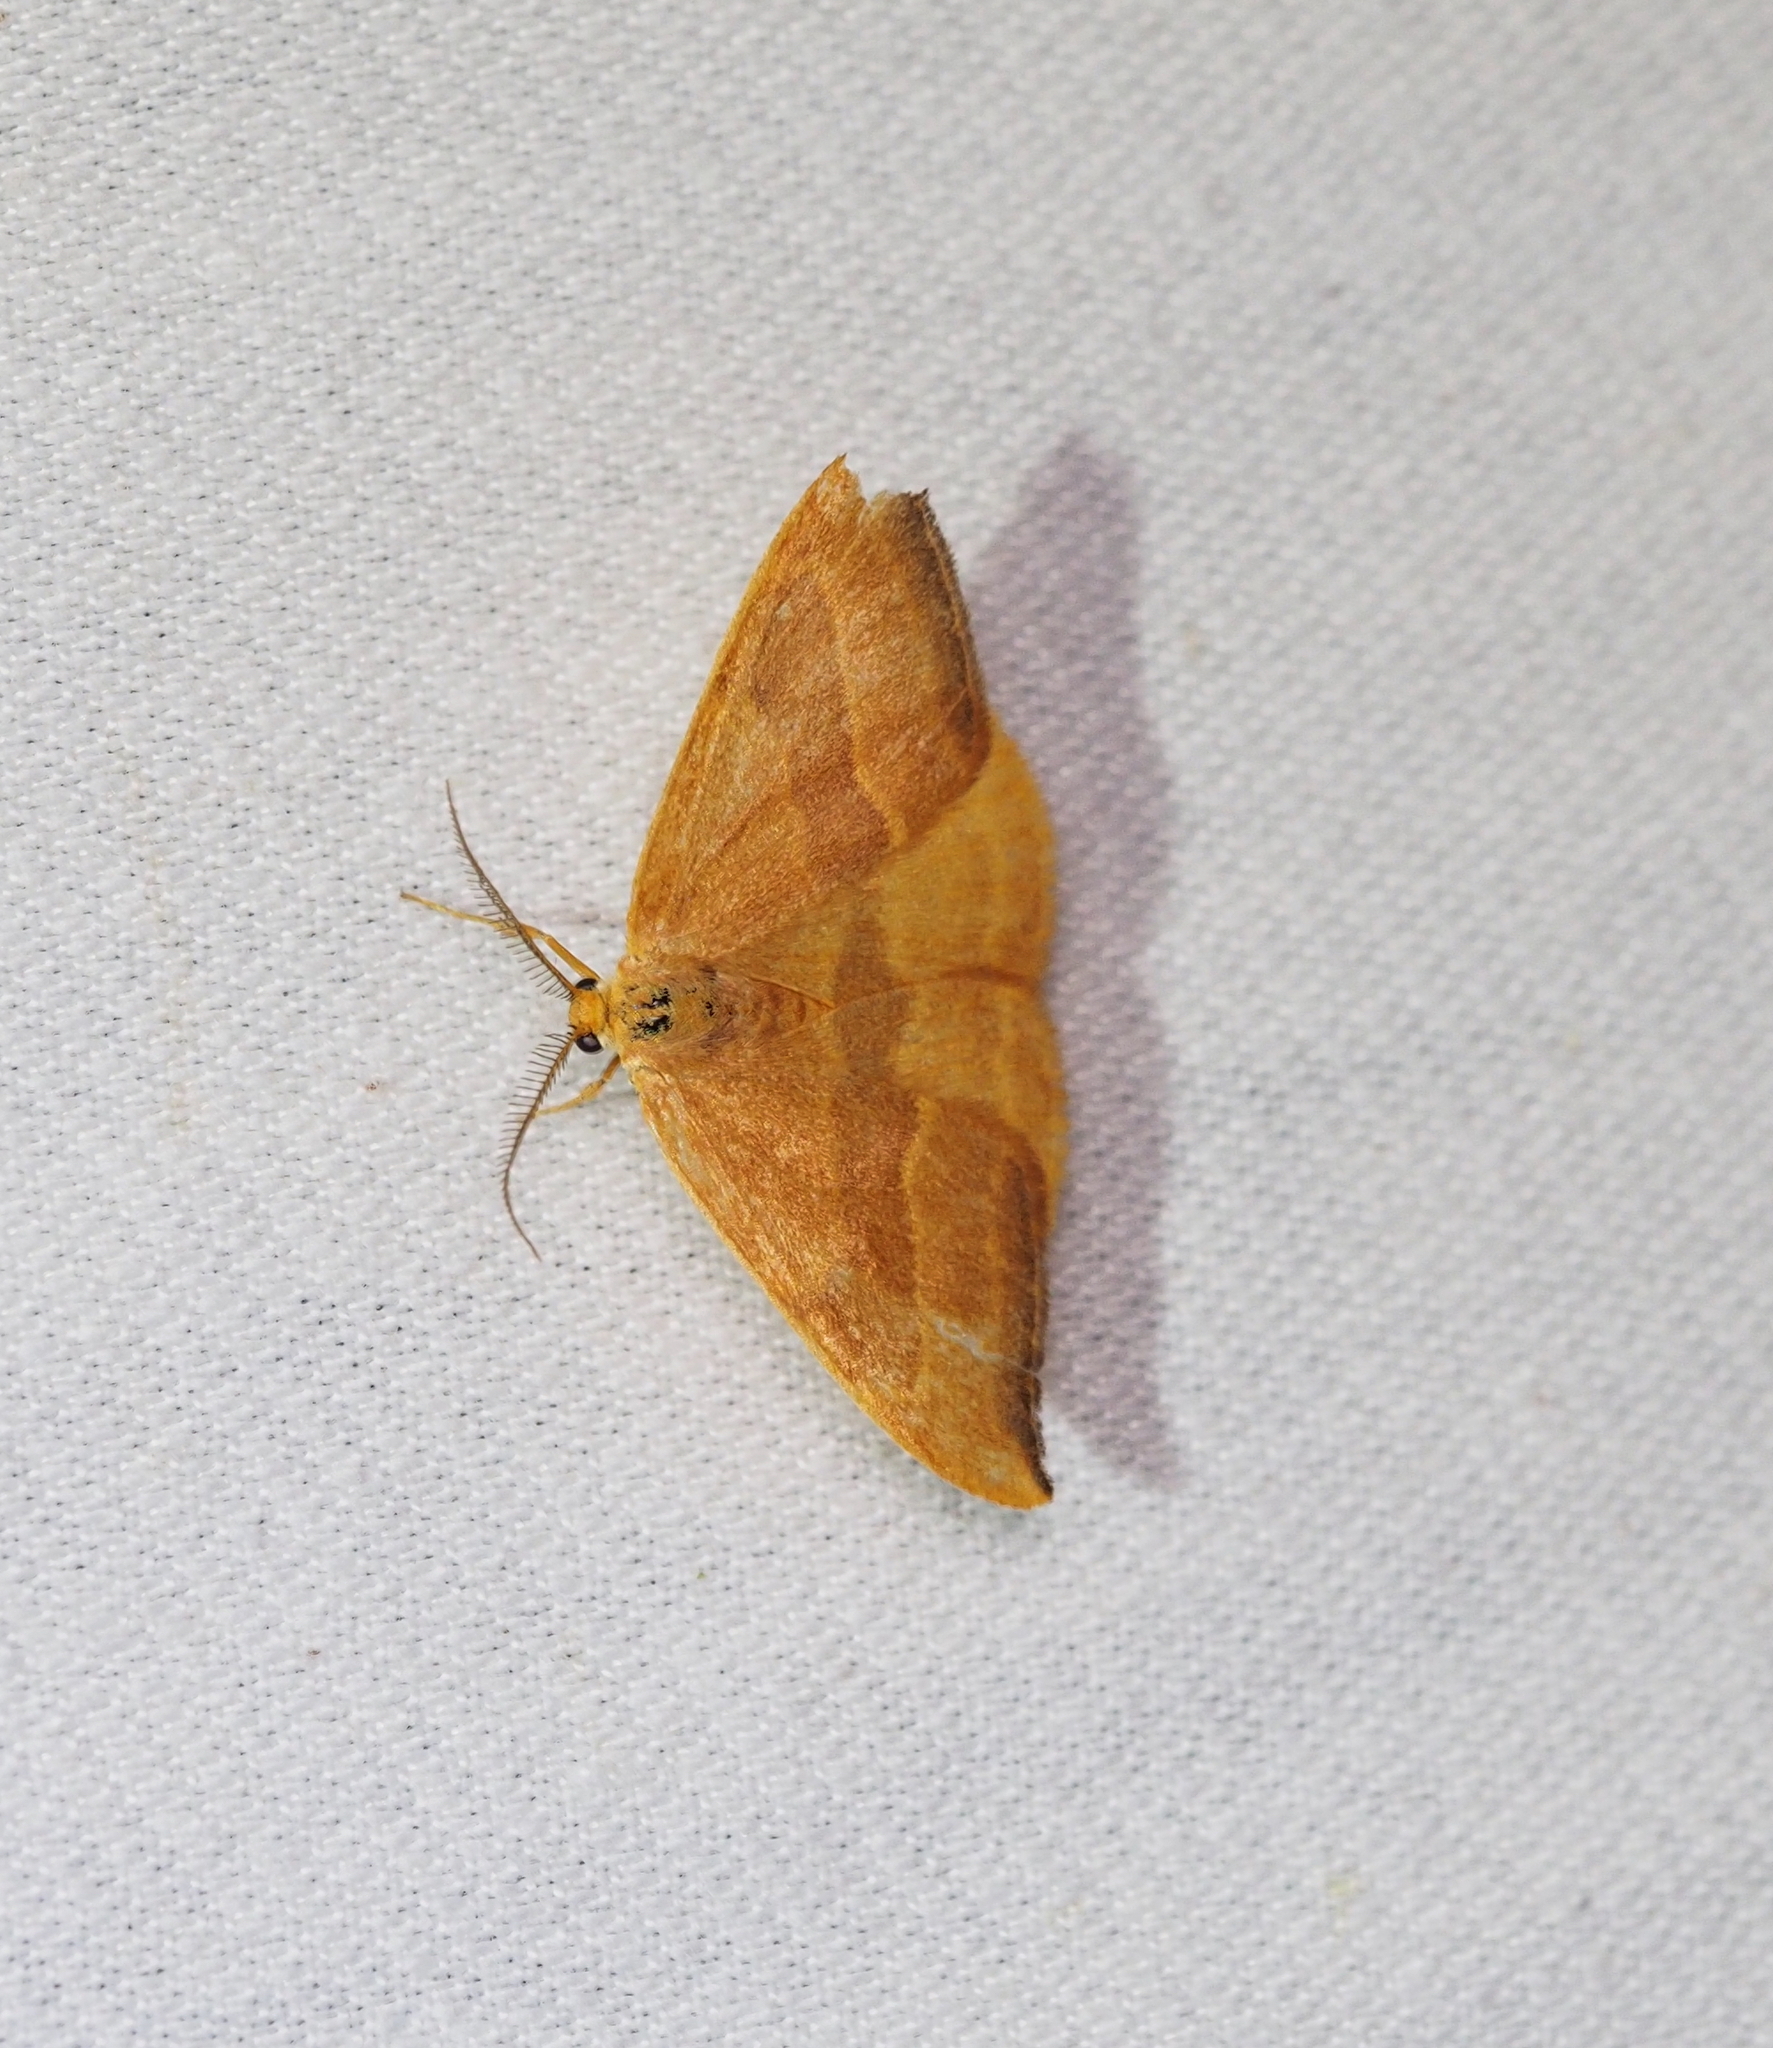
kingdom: Animalia
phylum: Arthropoda
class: Insecta
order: Lepidoptera
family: Drepanidae
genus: Watsonalla
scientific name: Watsonalla cultraria
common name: Barred hook-tip
